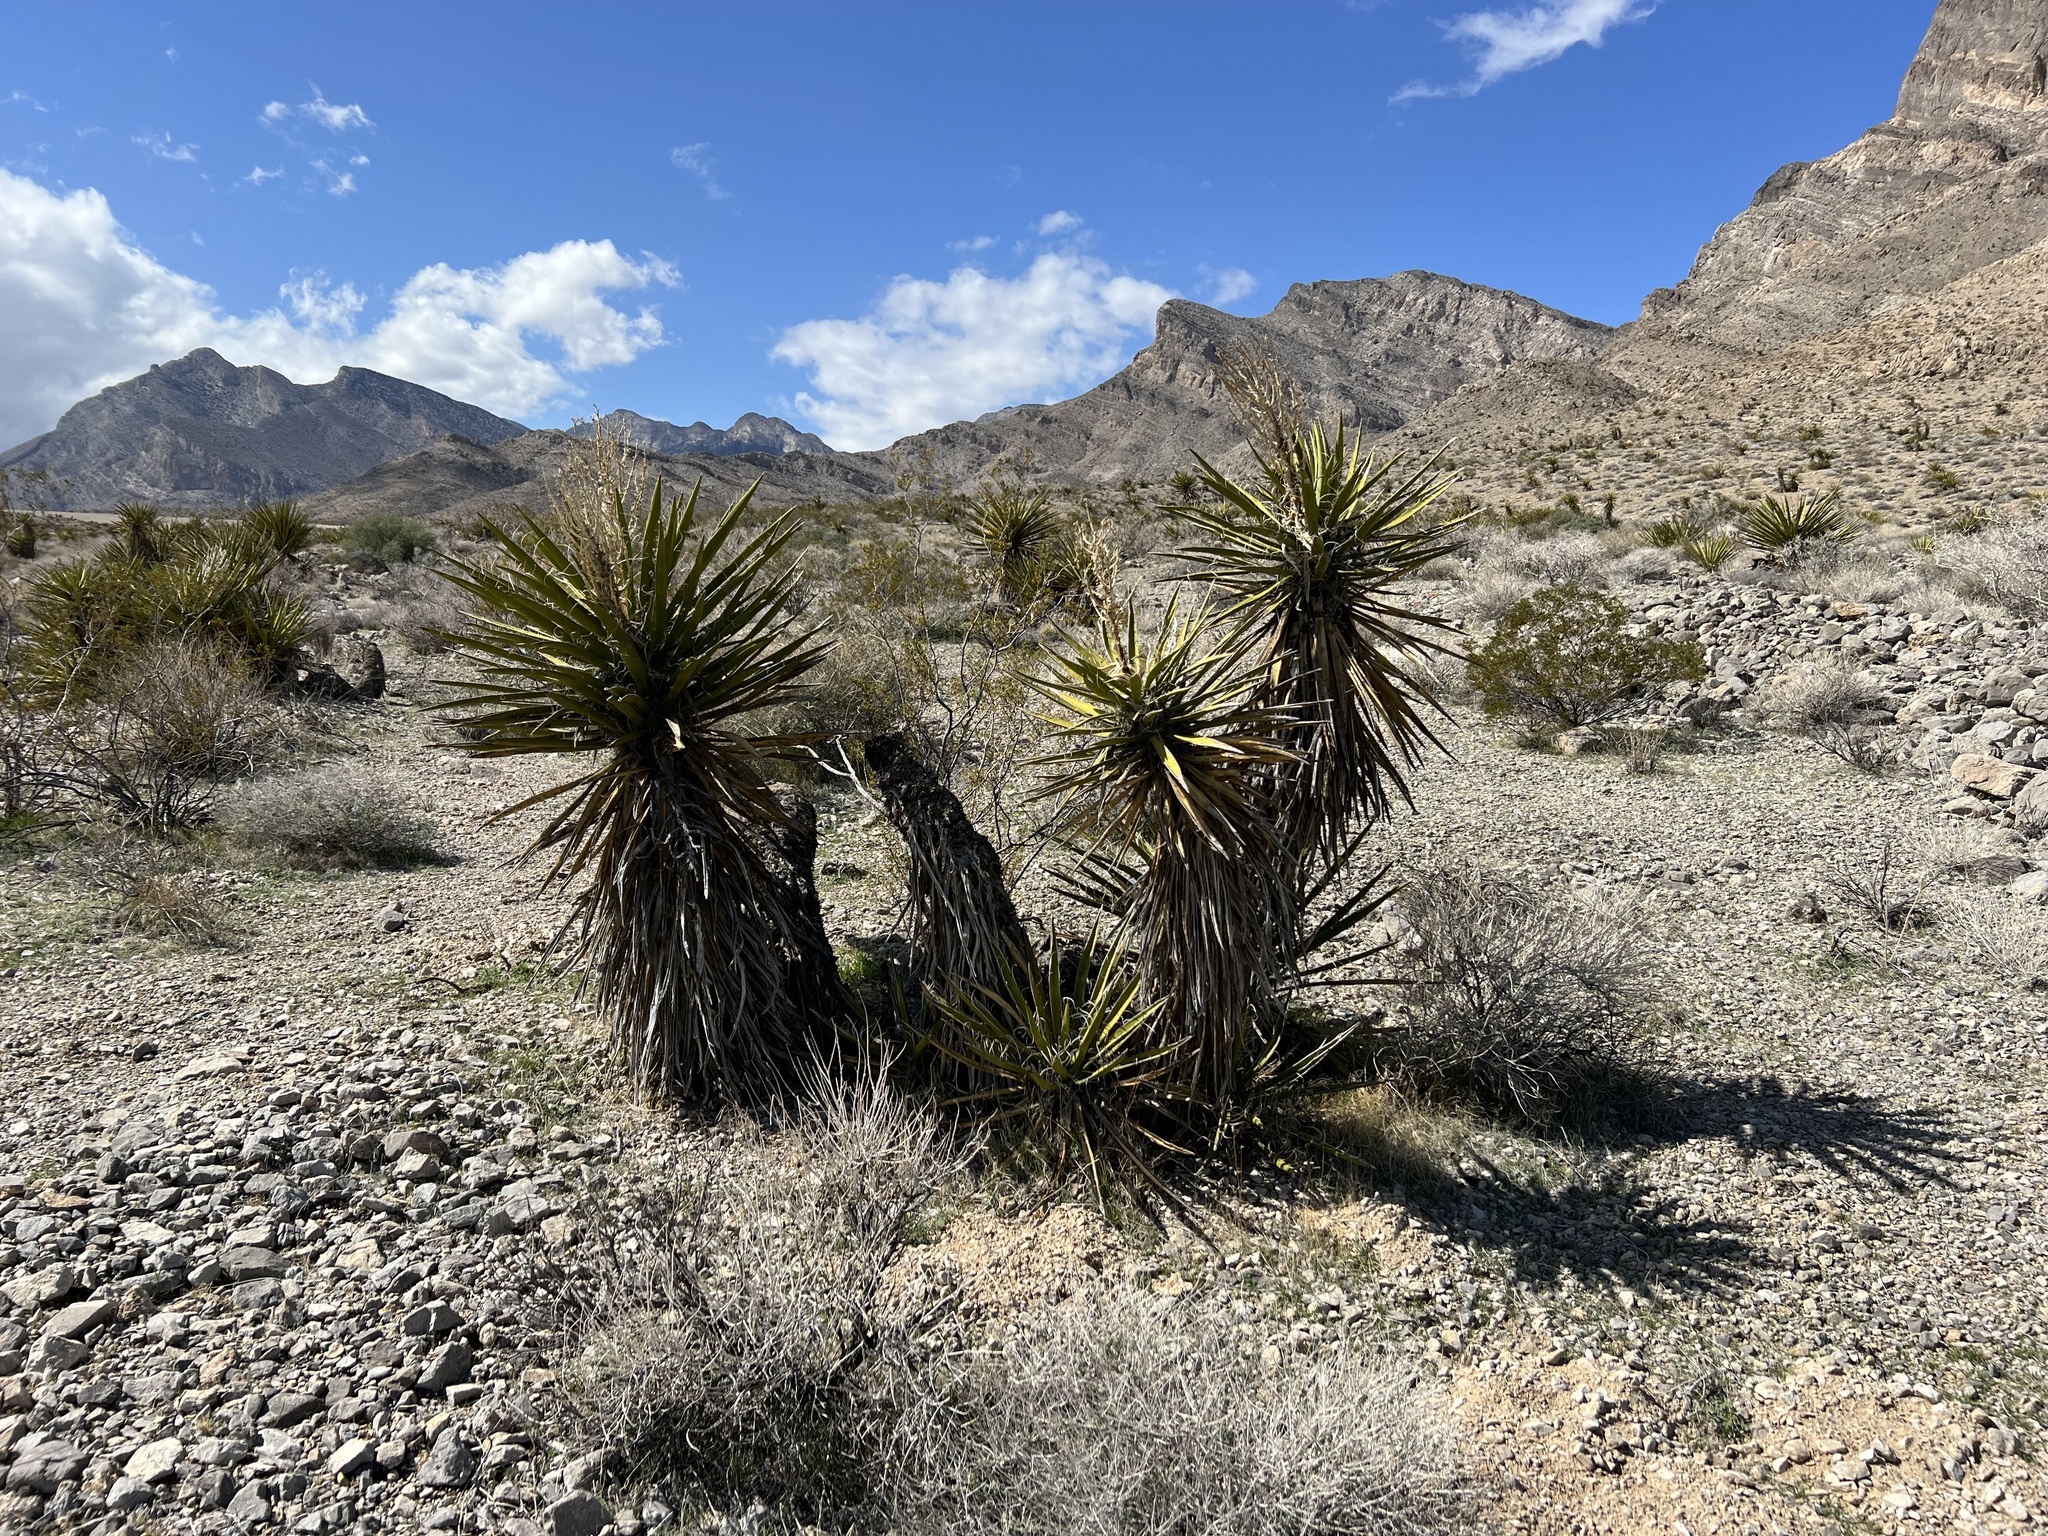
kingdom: Plantae
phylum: Tracheophyta
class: Liliopsida
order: Asparagales
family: Asparagaceae
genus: Yucca
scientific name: Yucca schidigera
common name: Mojave yucca
